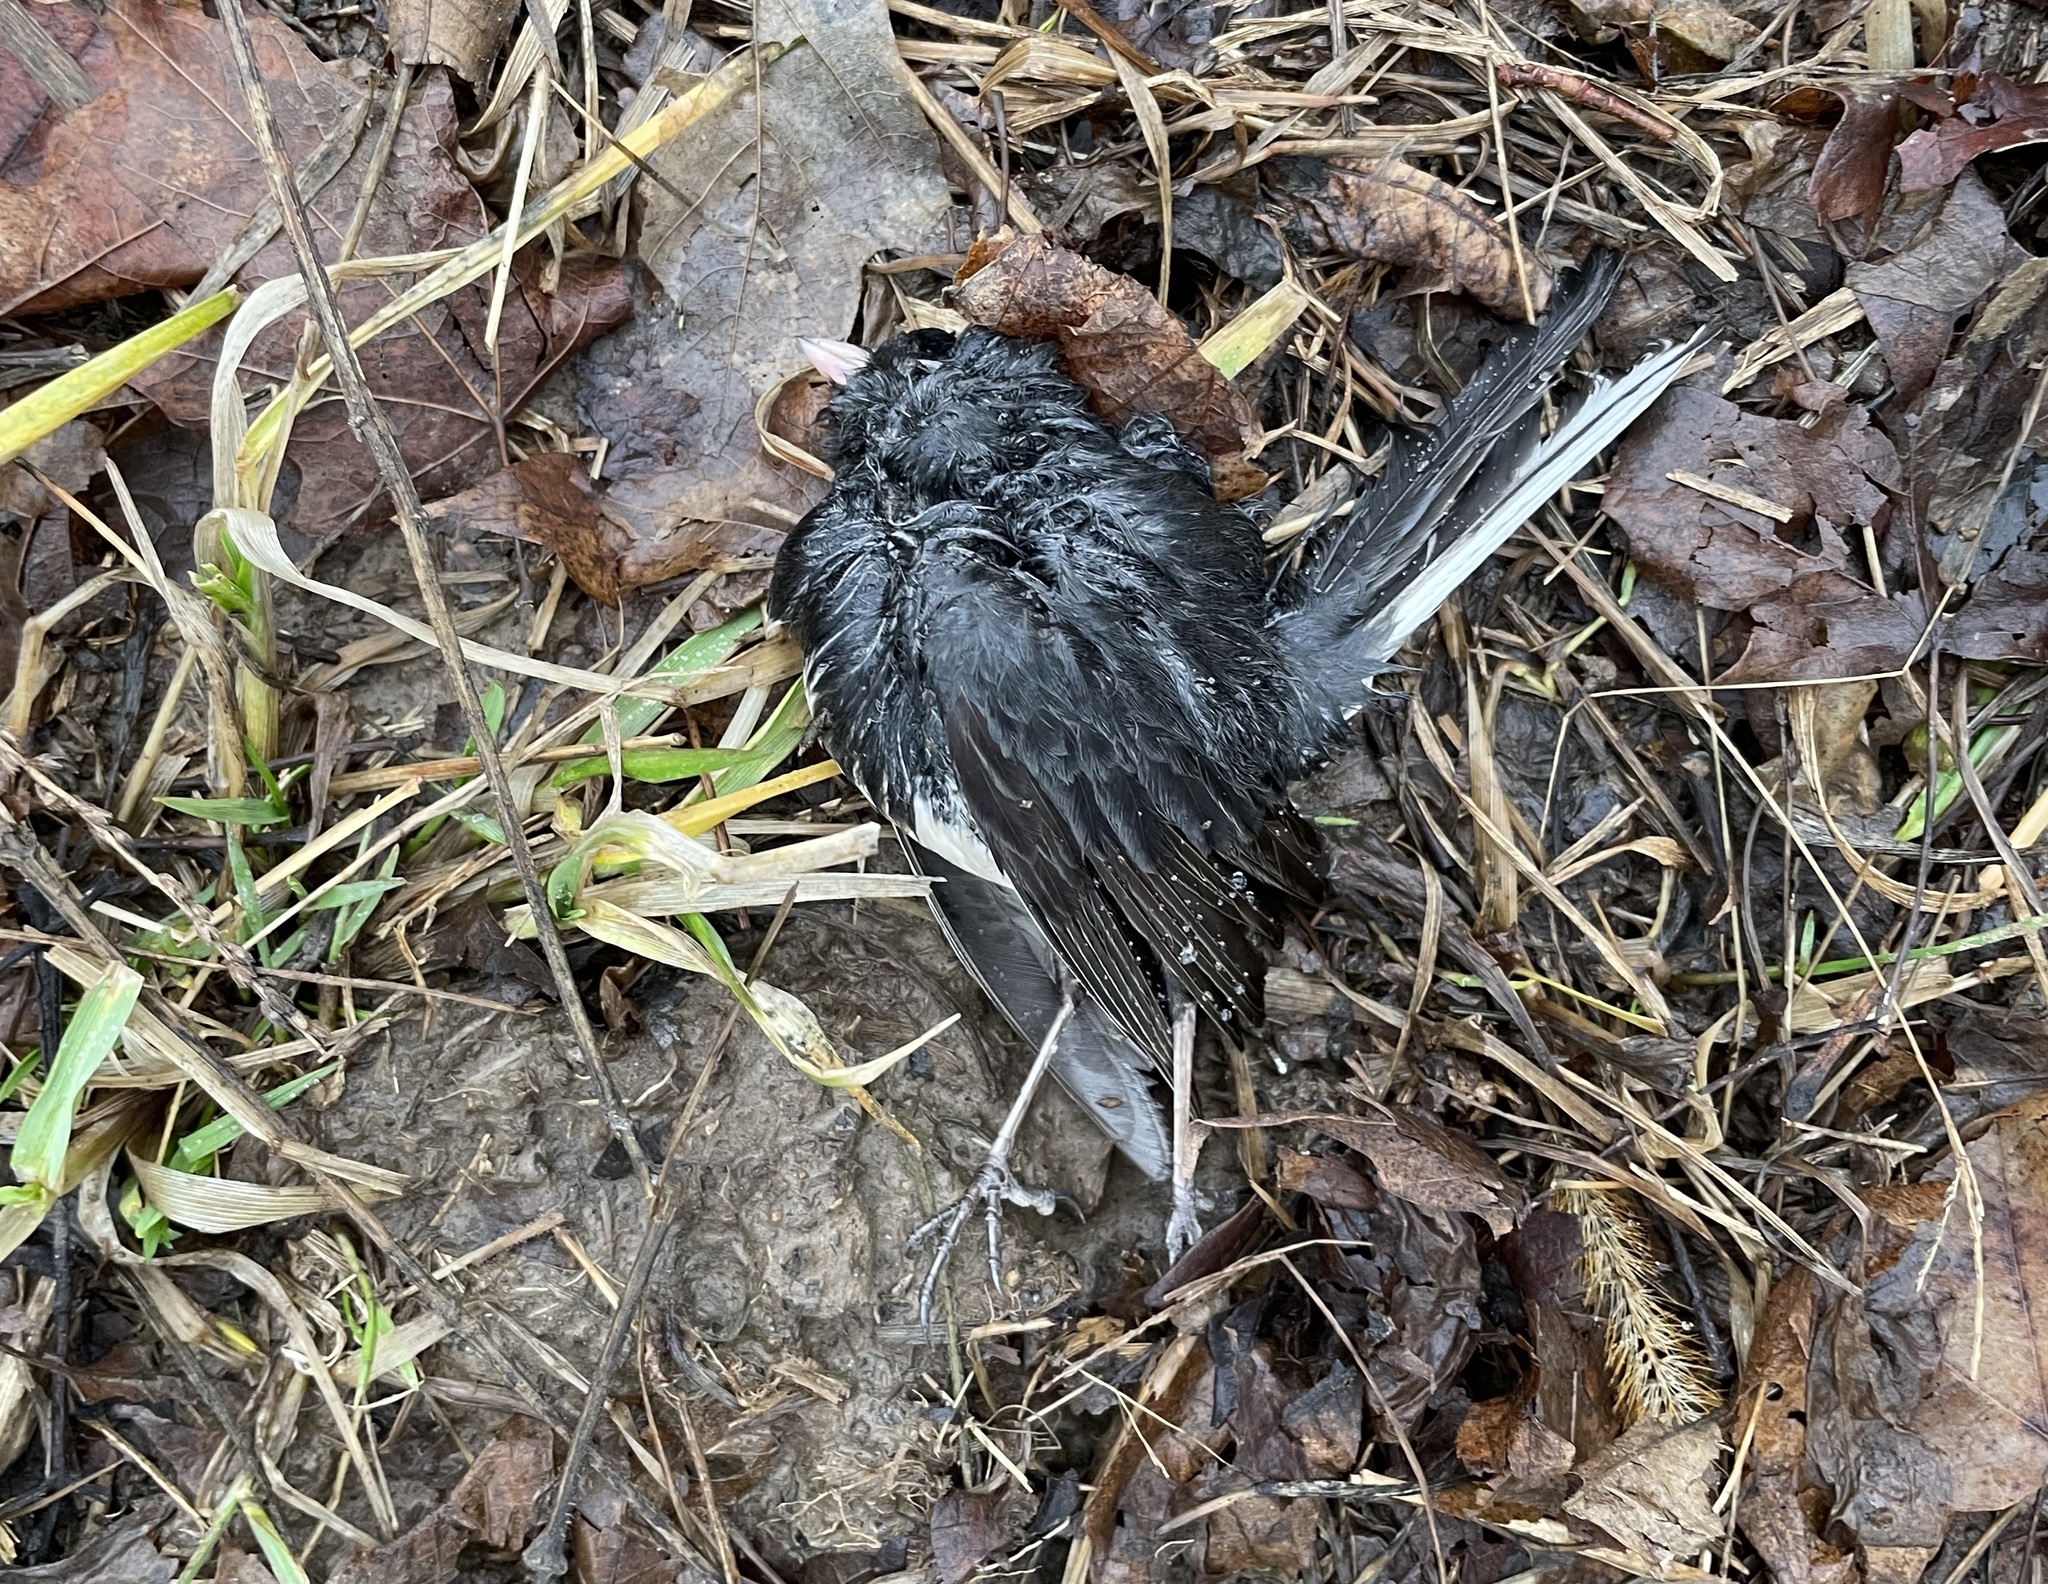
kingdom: Animalia
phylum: Chordata
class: Aves
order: Passeriformes
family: Passerellidae
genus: Junco
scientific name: Junco hyemalis
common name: Dark-eyed junco
